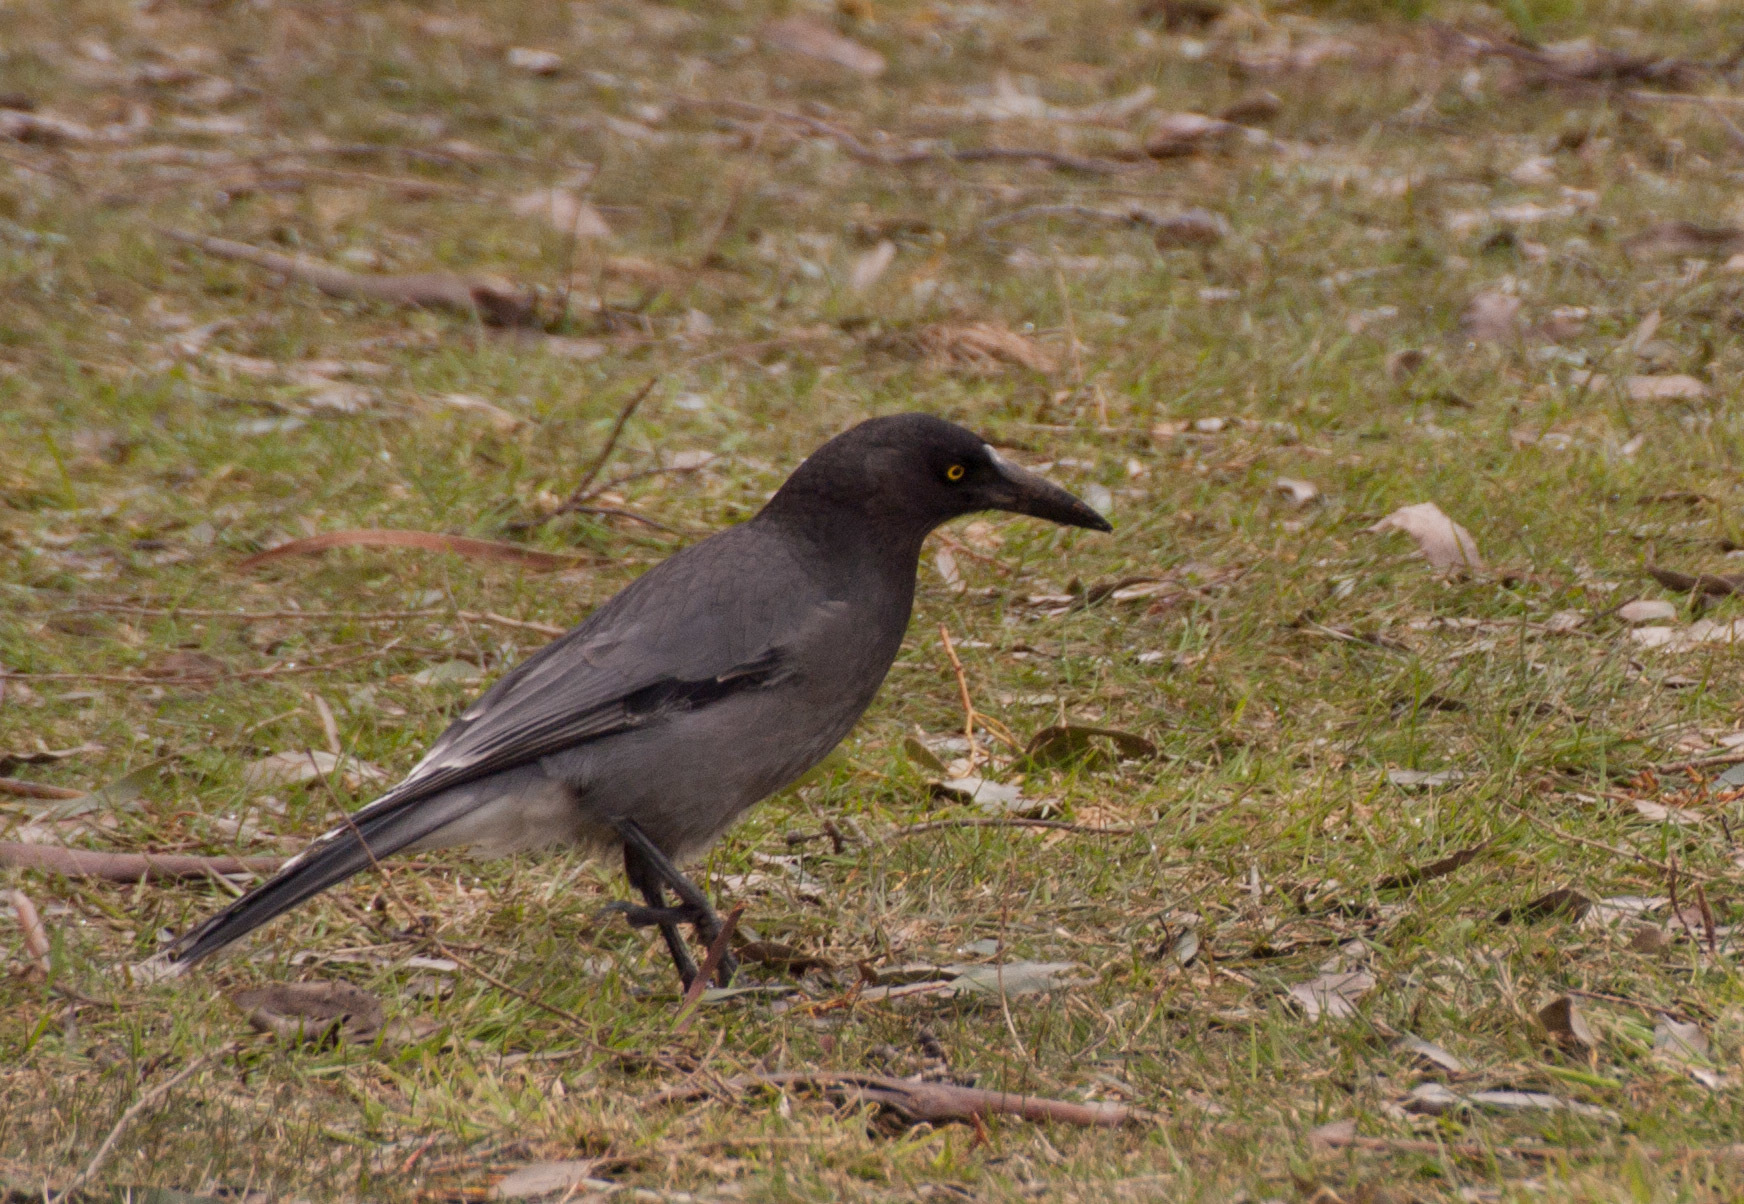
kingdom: Animalia
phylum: Chordata
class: Aves
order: Passeriformes
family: Cracticidae
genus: Strepera
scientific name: Strepera versicolor
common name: Grey currawong
